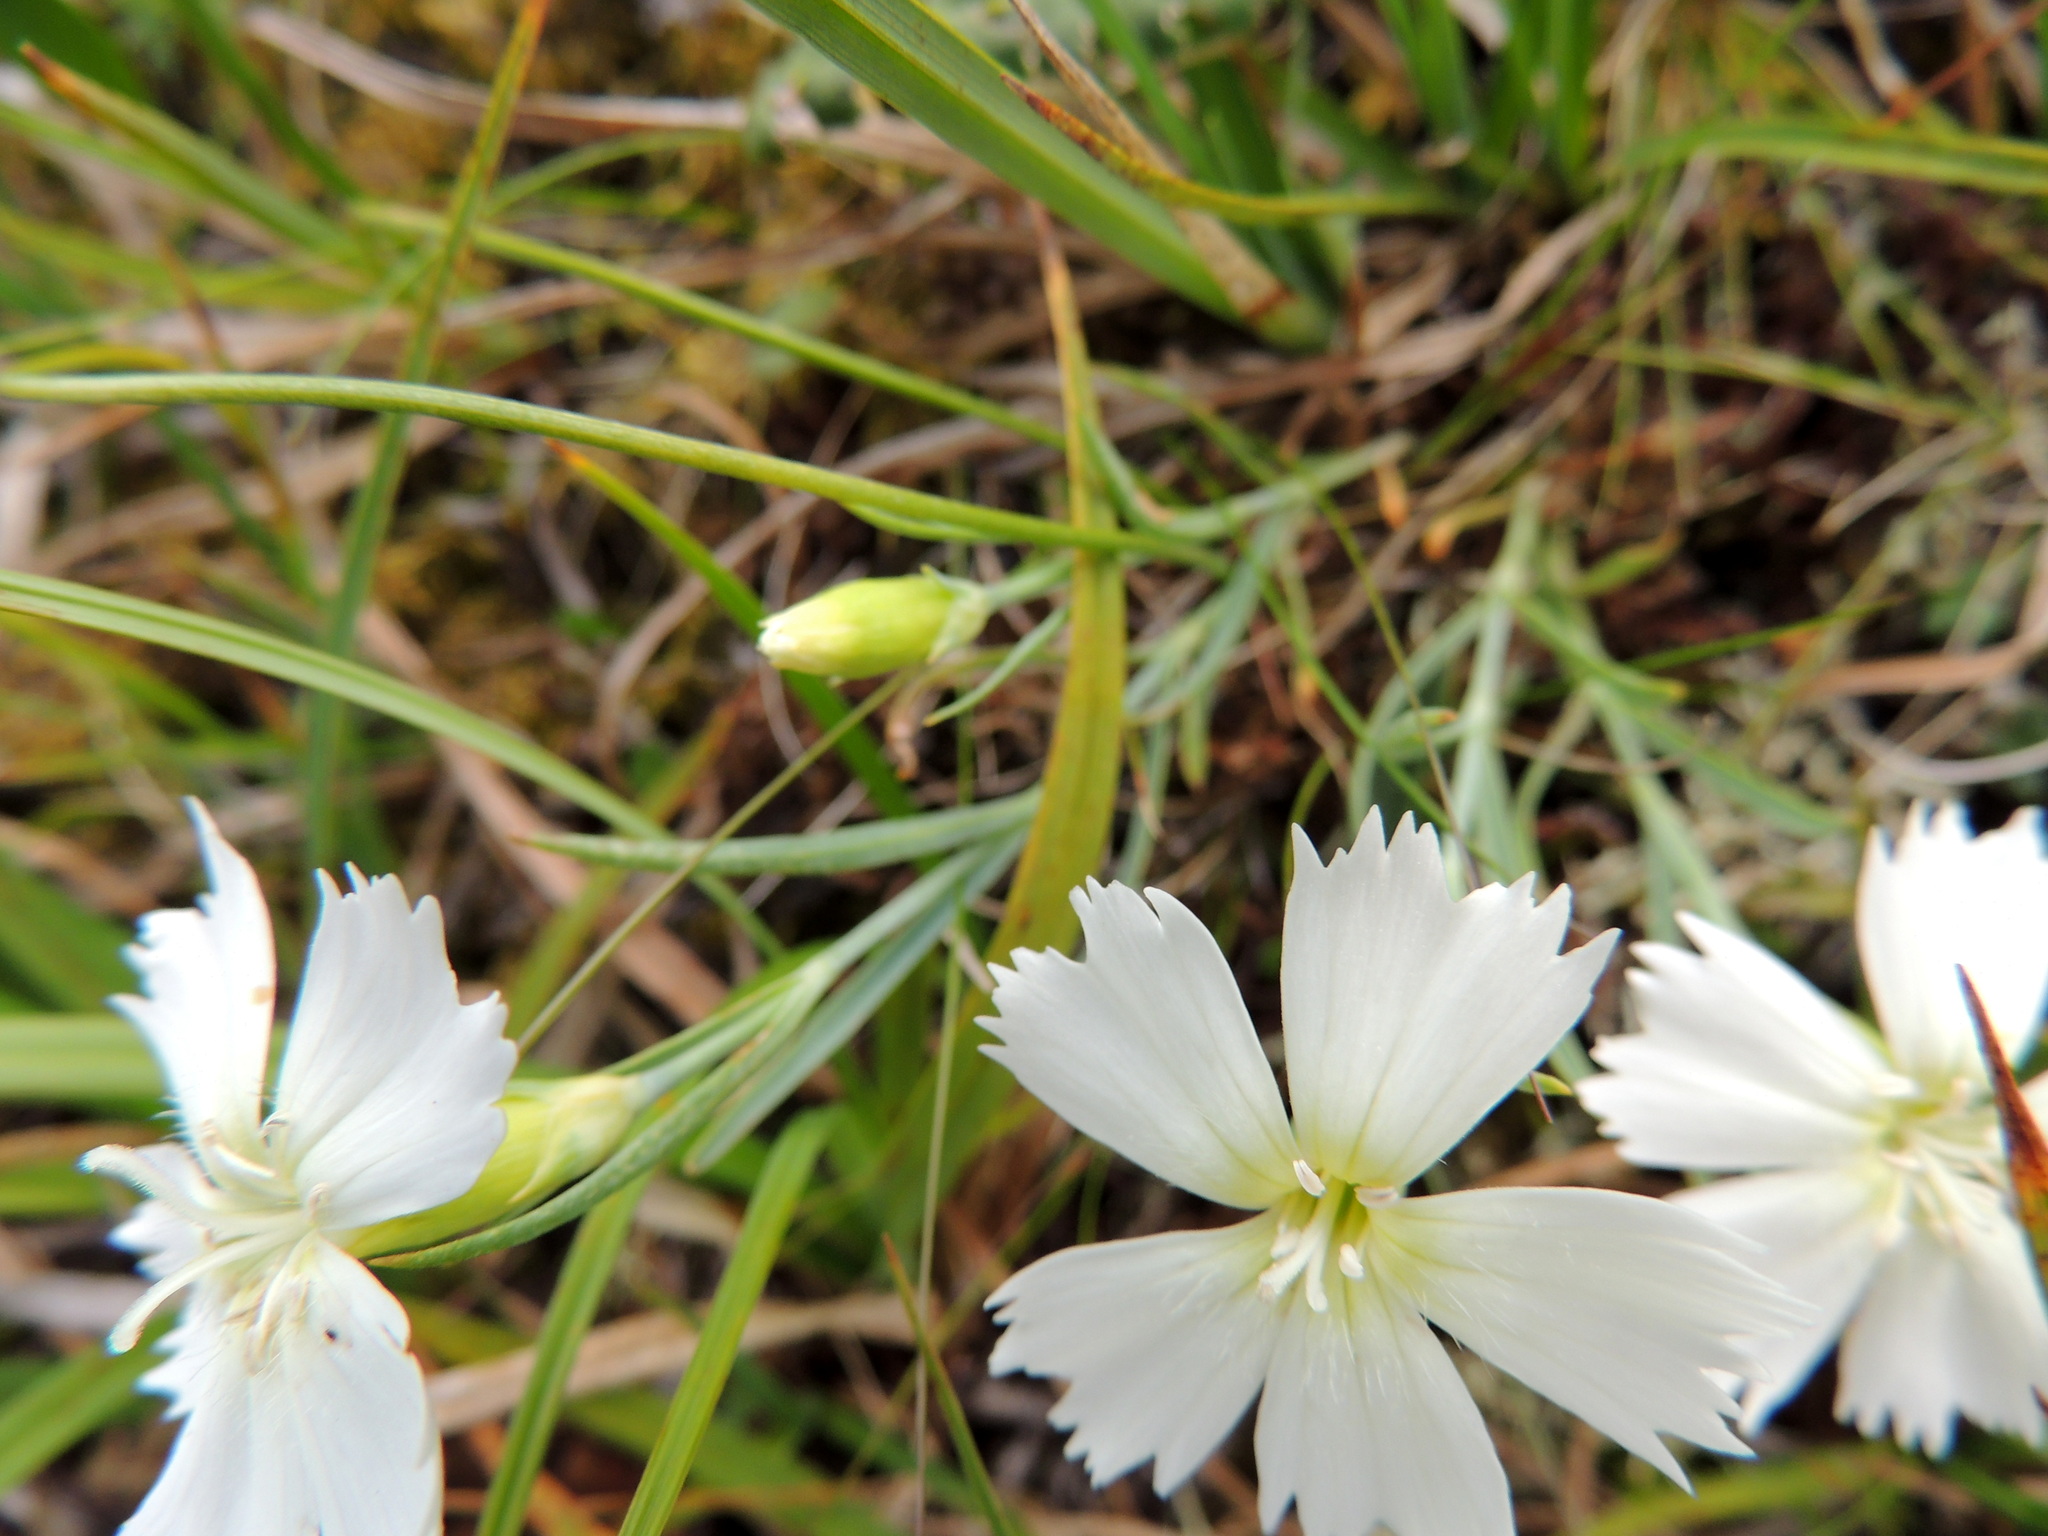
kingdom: Plantae
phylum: Tracheophyta
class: Magnoliopsida
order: Caryophyllales
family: Caryophyllaceae
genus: Dianthus
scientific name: Dianthus repens
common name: Northern pink
